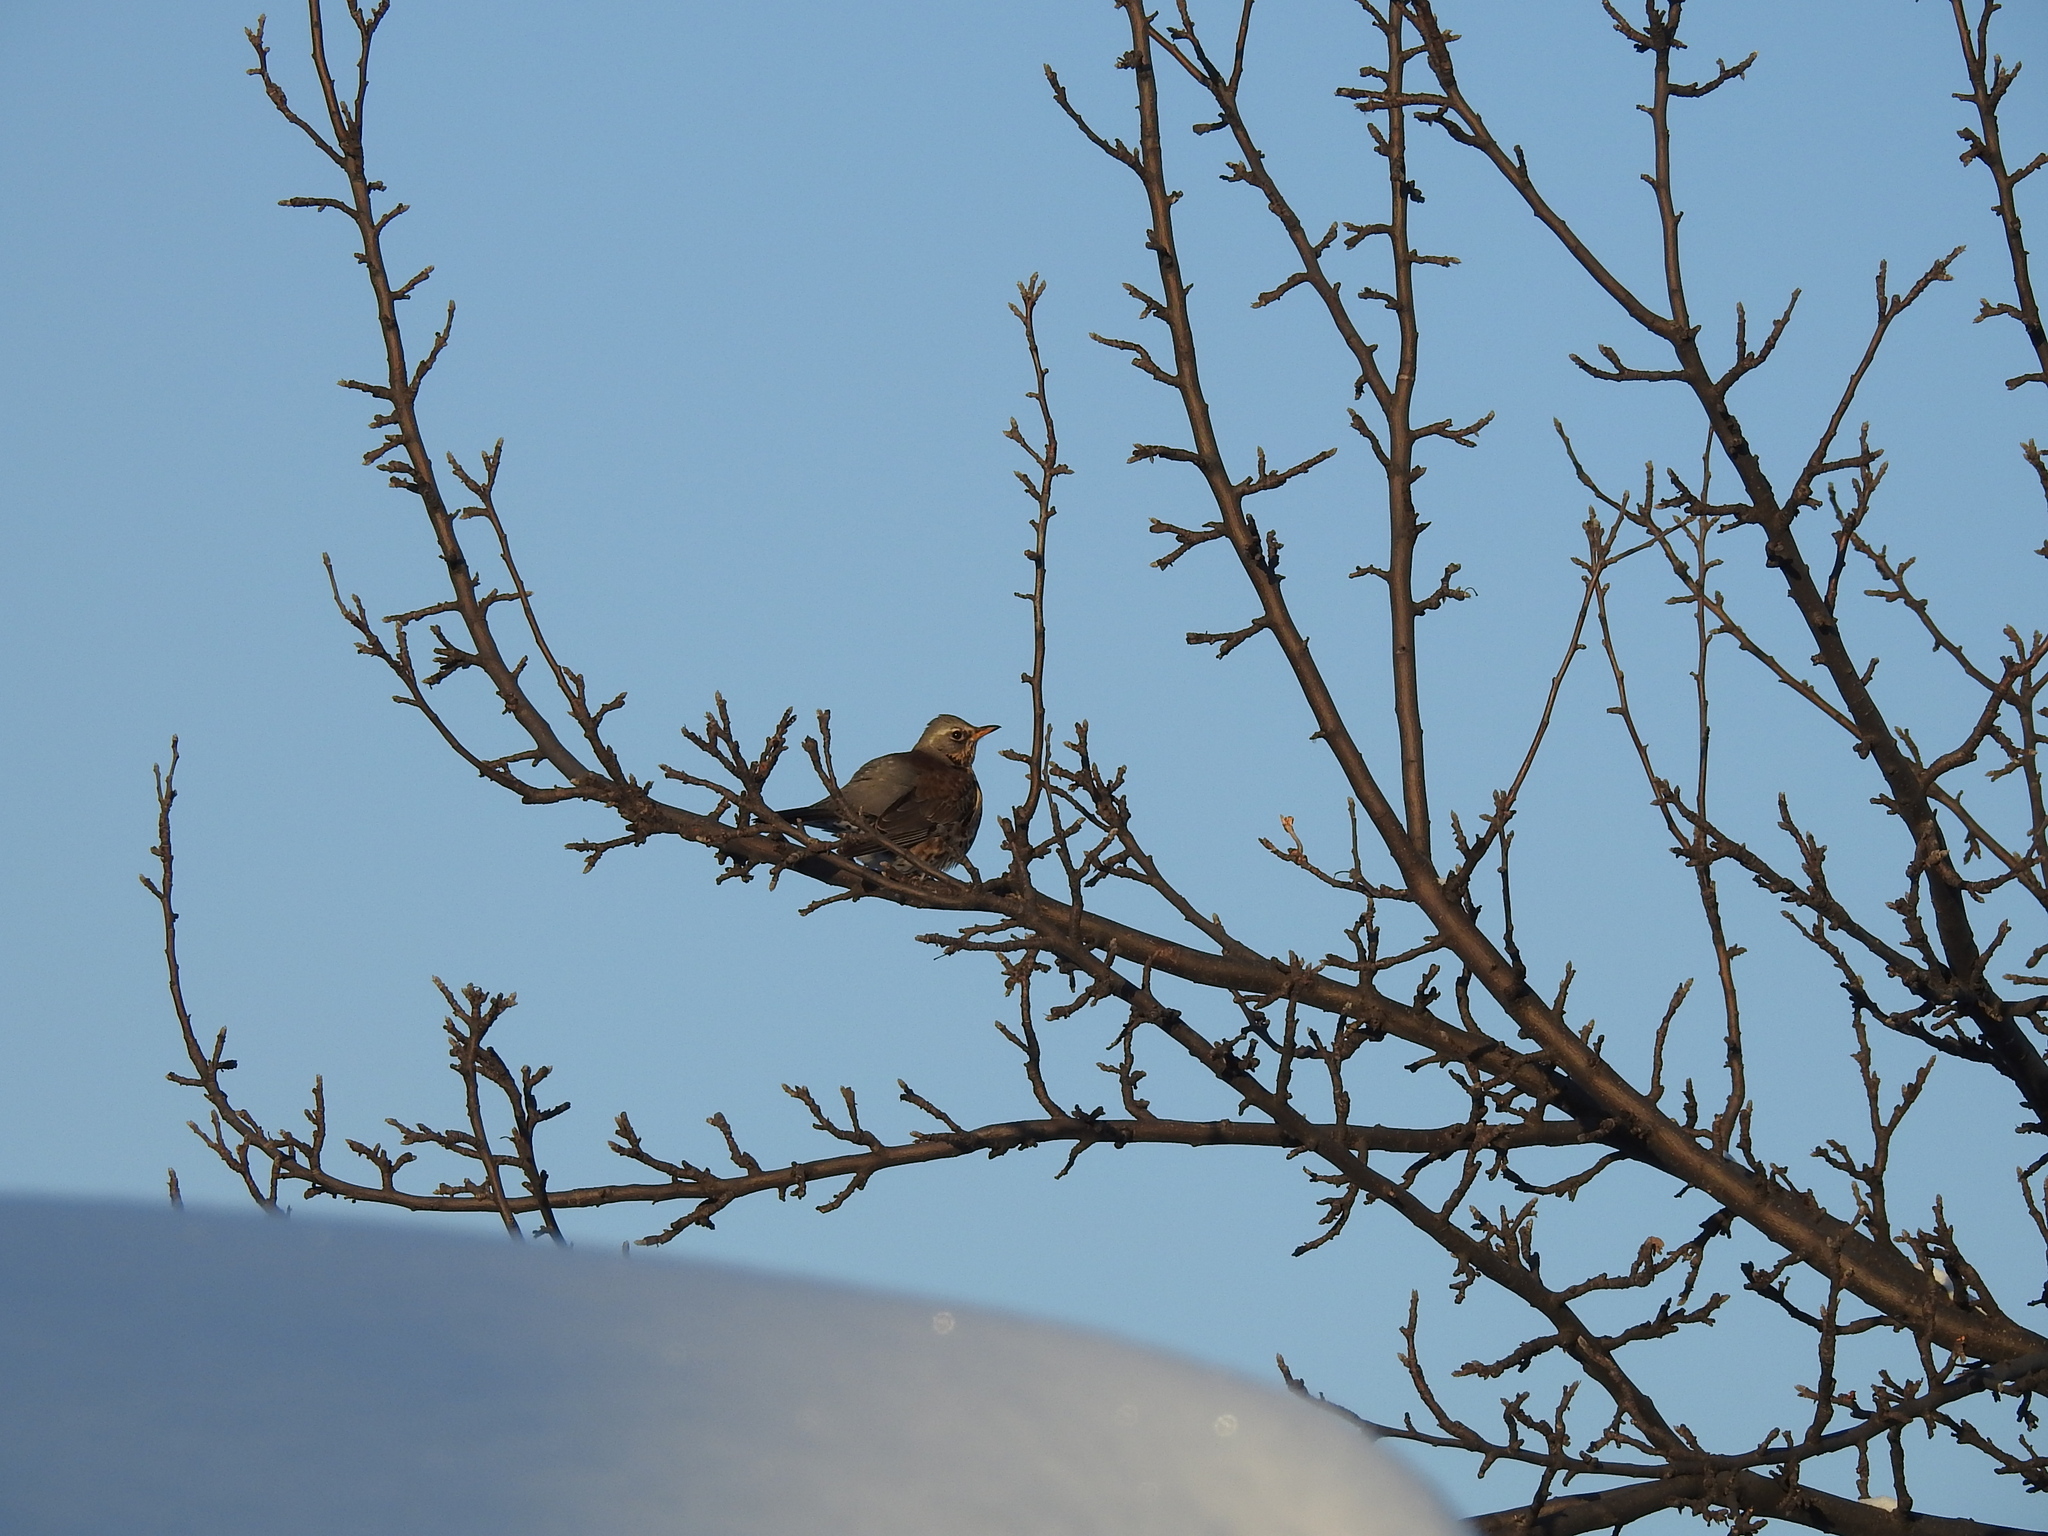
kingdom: Animalia
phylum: Chordata
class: Aves
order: Passeriformes
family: Turdidae
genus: Turdus
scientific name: Turdus pilaris
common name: Fieldfare
